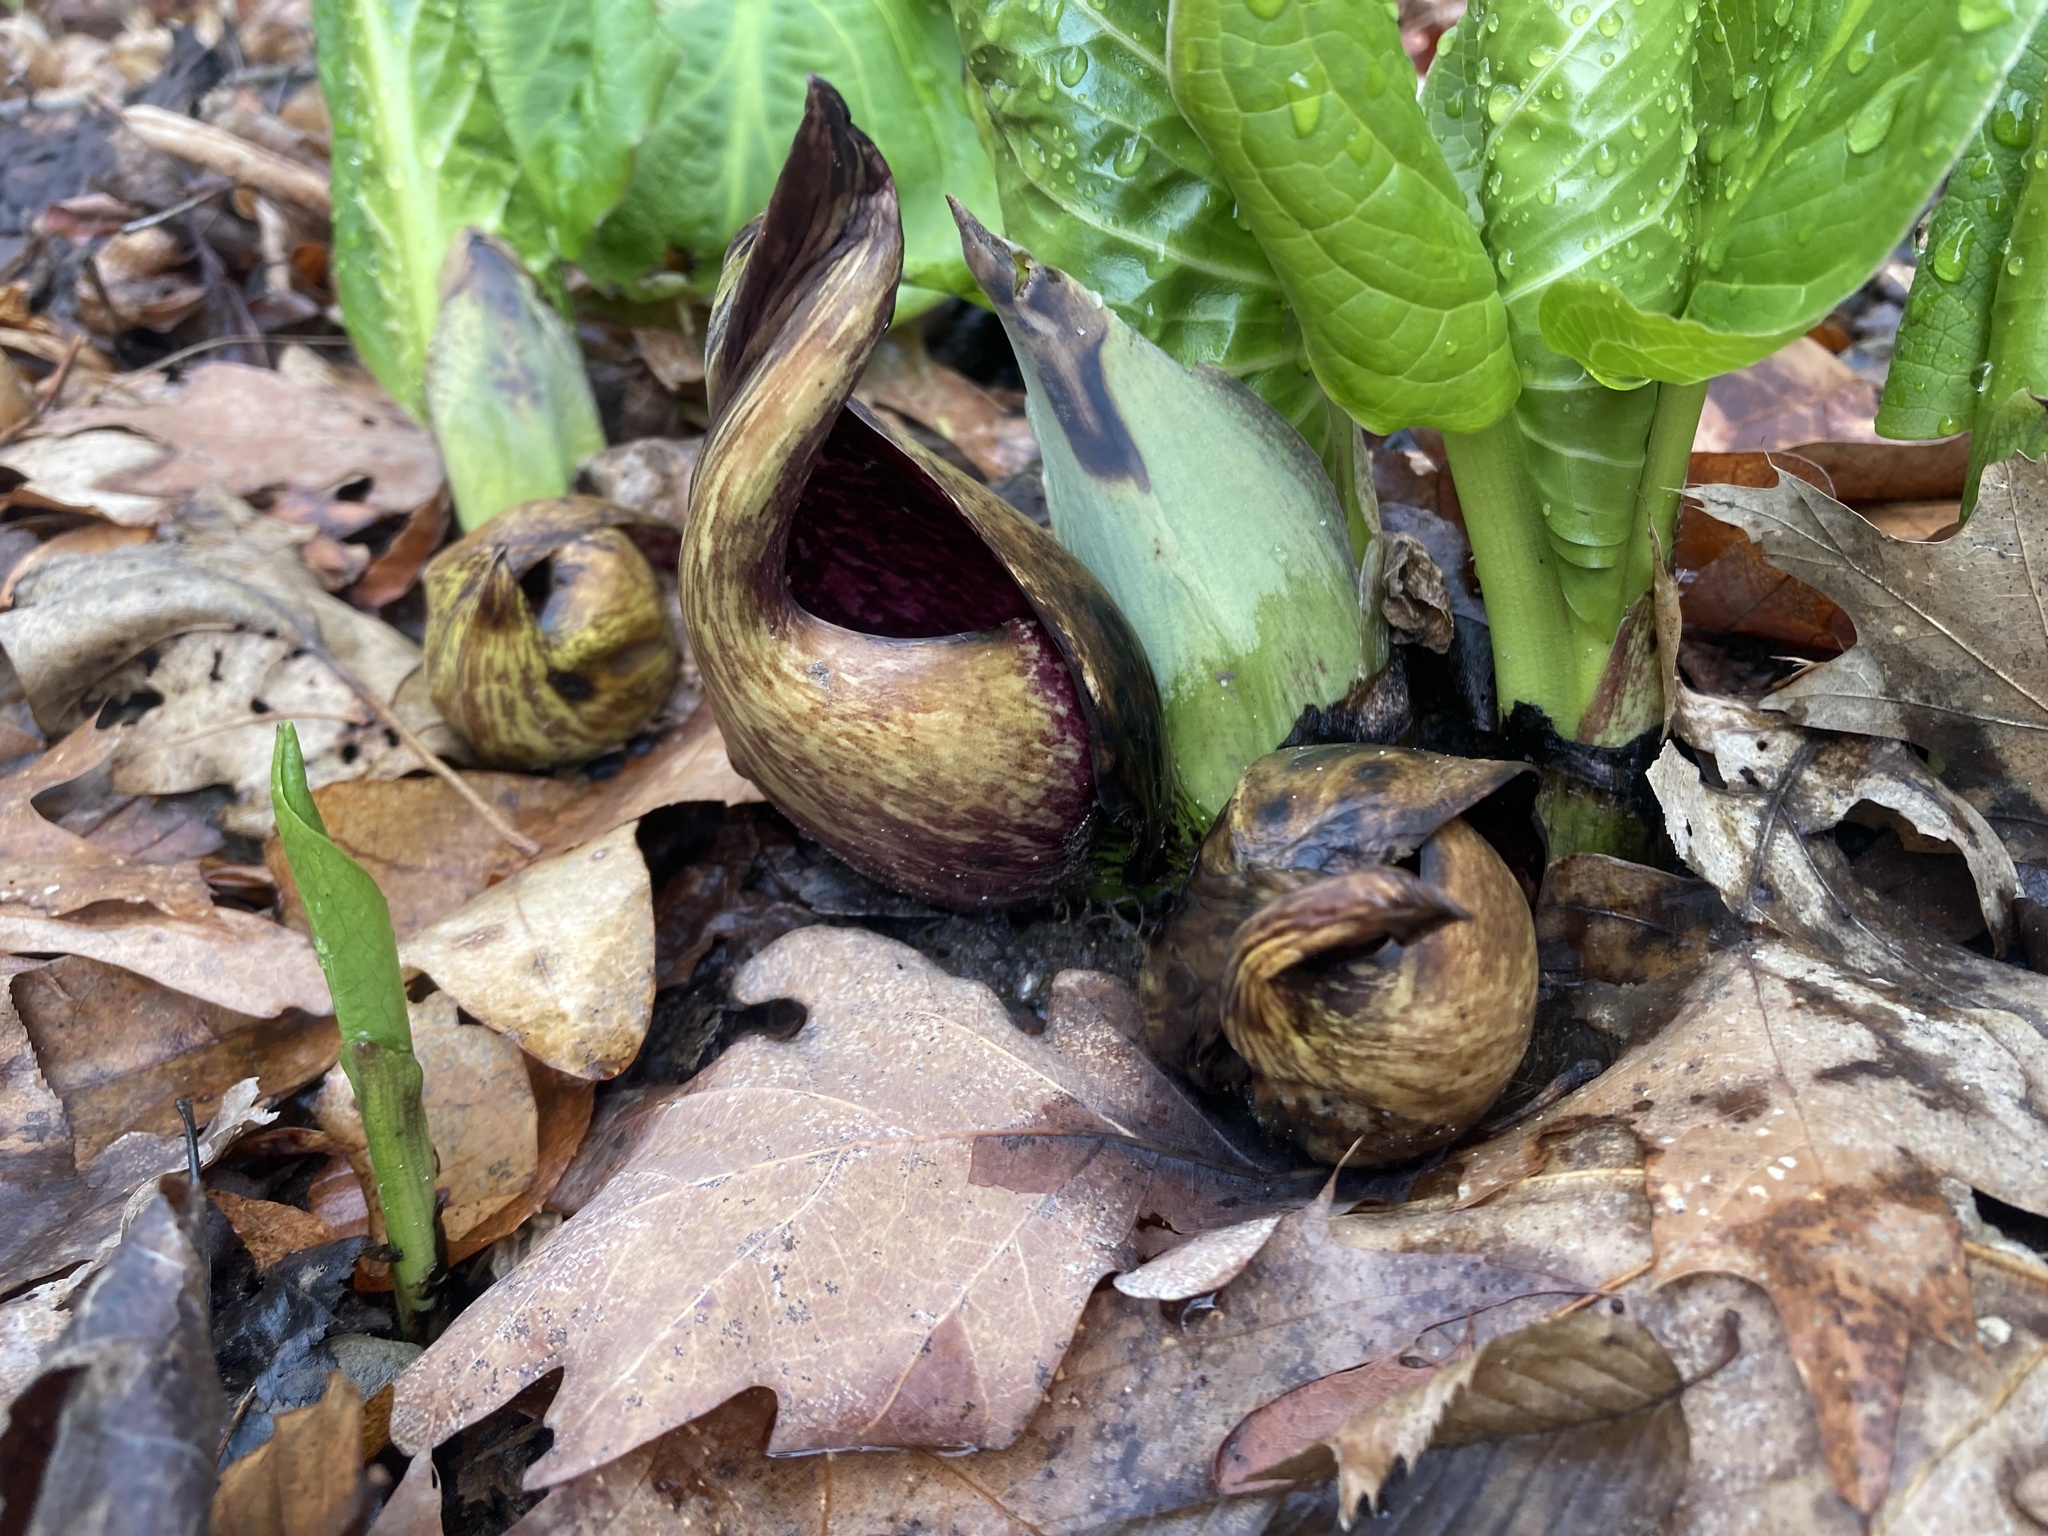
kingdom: Plantae
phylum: Tracheophyta
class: Liliopsida
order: Alismatales
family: Araceae
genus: Symplocarpus
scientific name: Symplocarpus foetidus
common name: Eastern skunk cabbage
